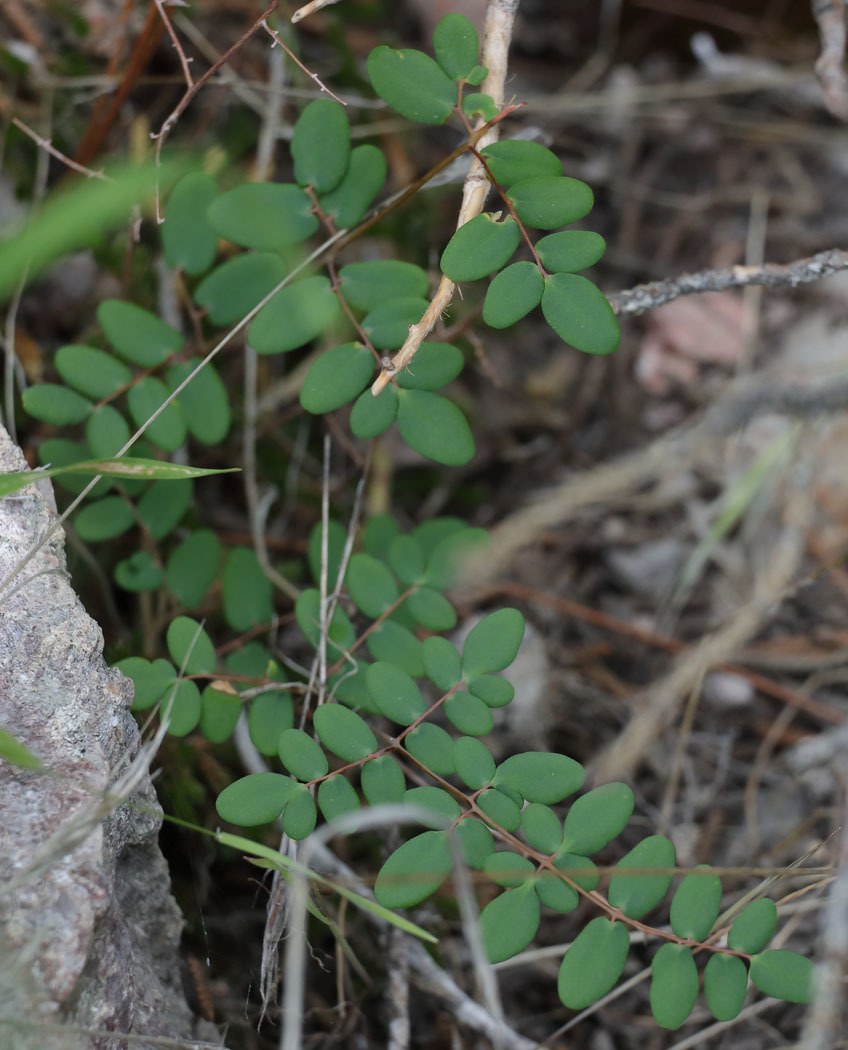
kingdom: Plantae
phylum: Tracheophyta
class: Polypodiopsida
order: Polypodiales
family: Pteridaceae
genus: Pellaea
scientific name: Pellaea andromedifolia
